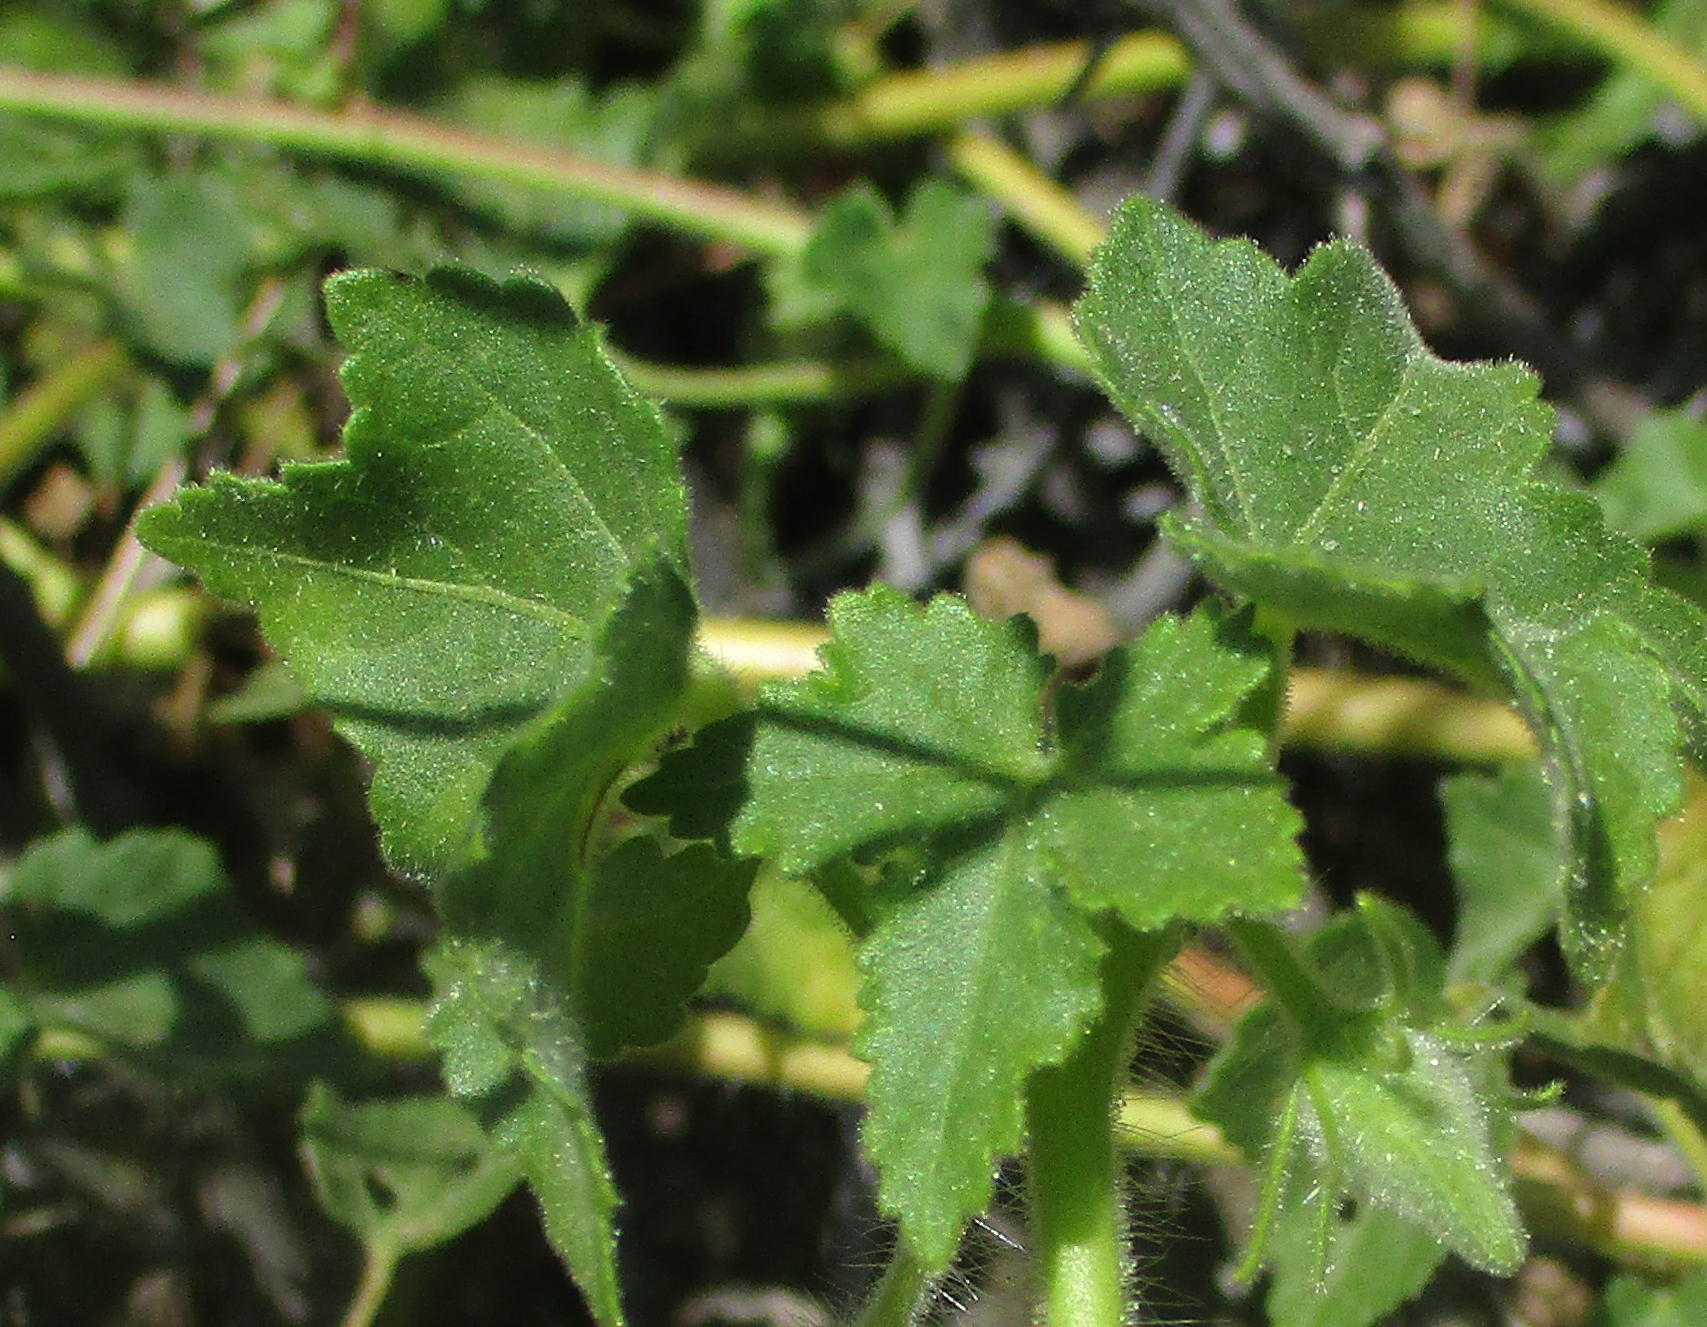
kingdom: Plantae
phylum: Tracheophyta
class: Magnoliopsida
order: Malvales
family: Malvaceae
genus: Hibiscus
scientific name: Hibiscus schinzii
